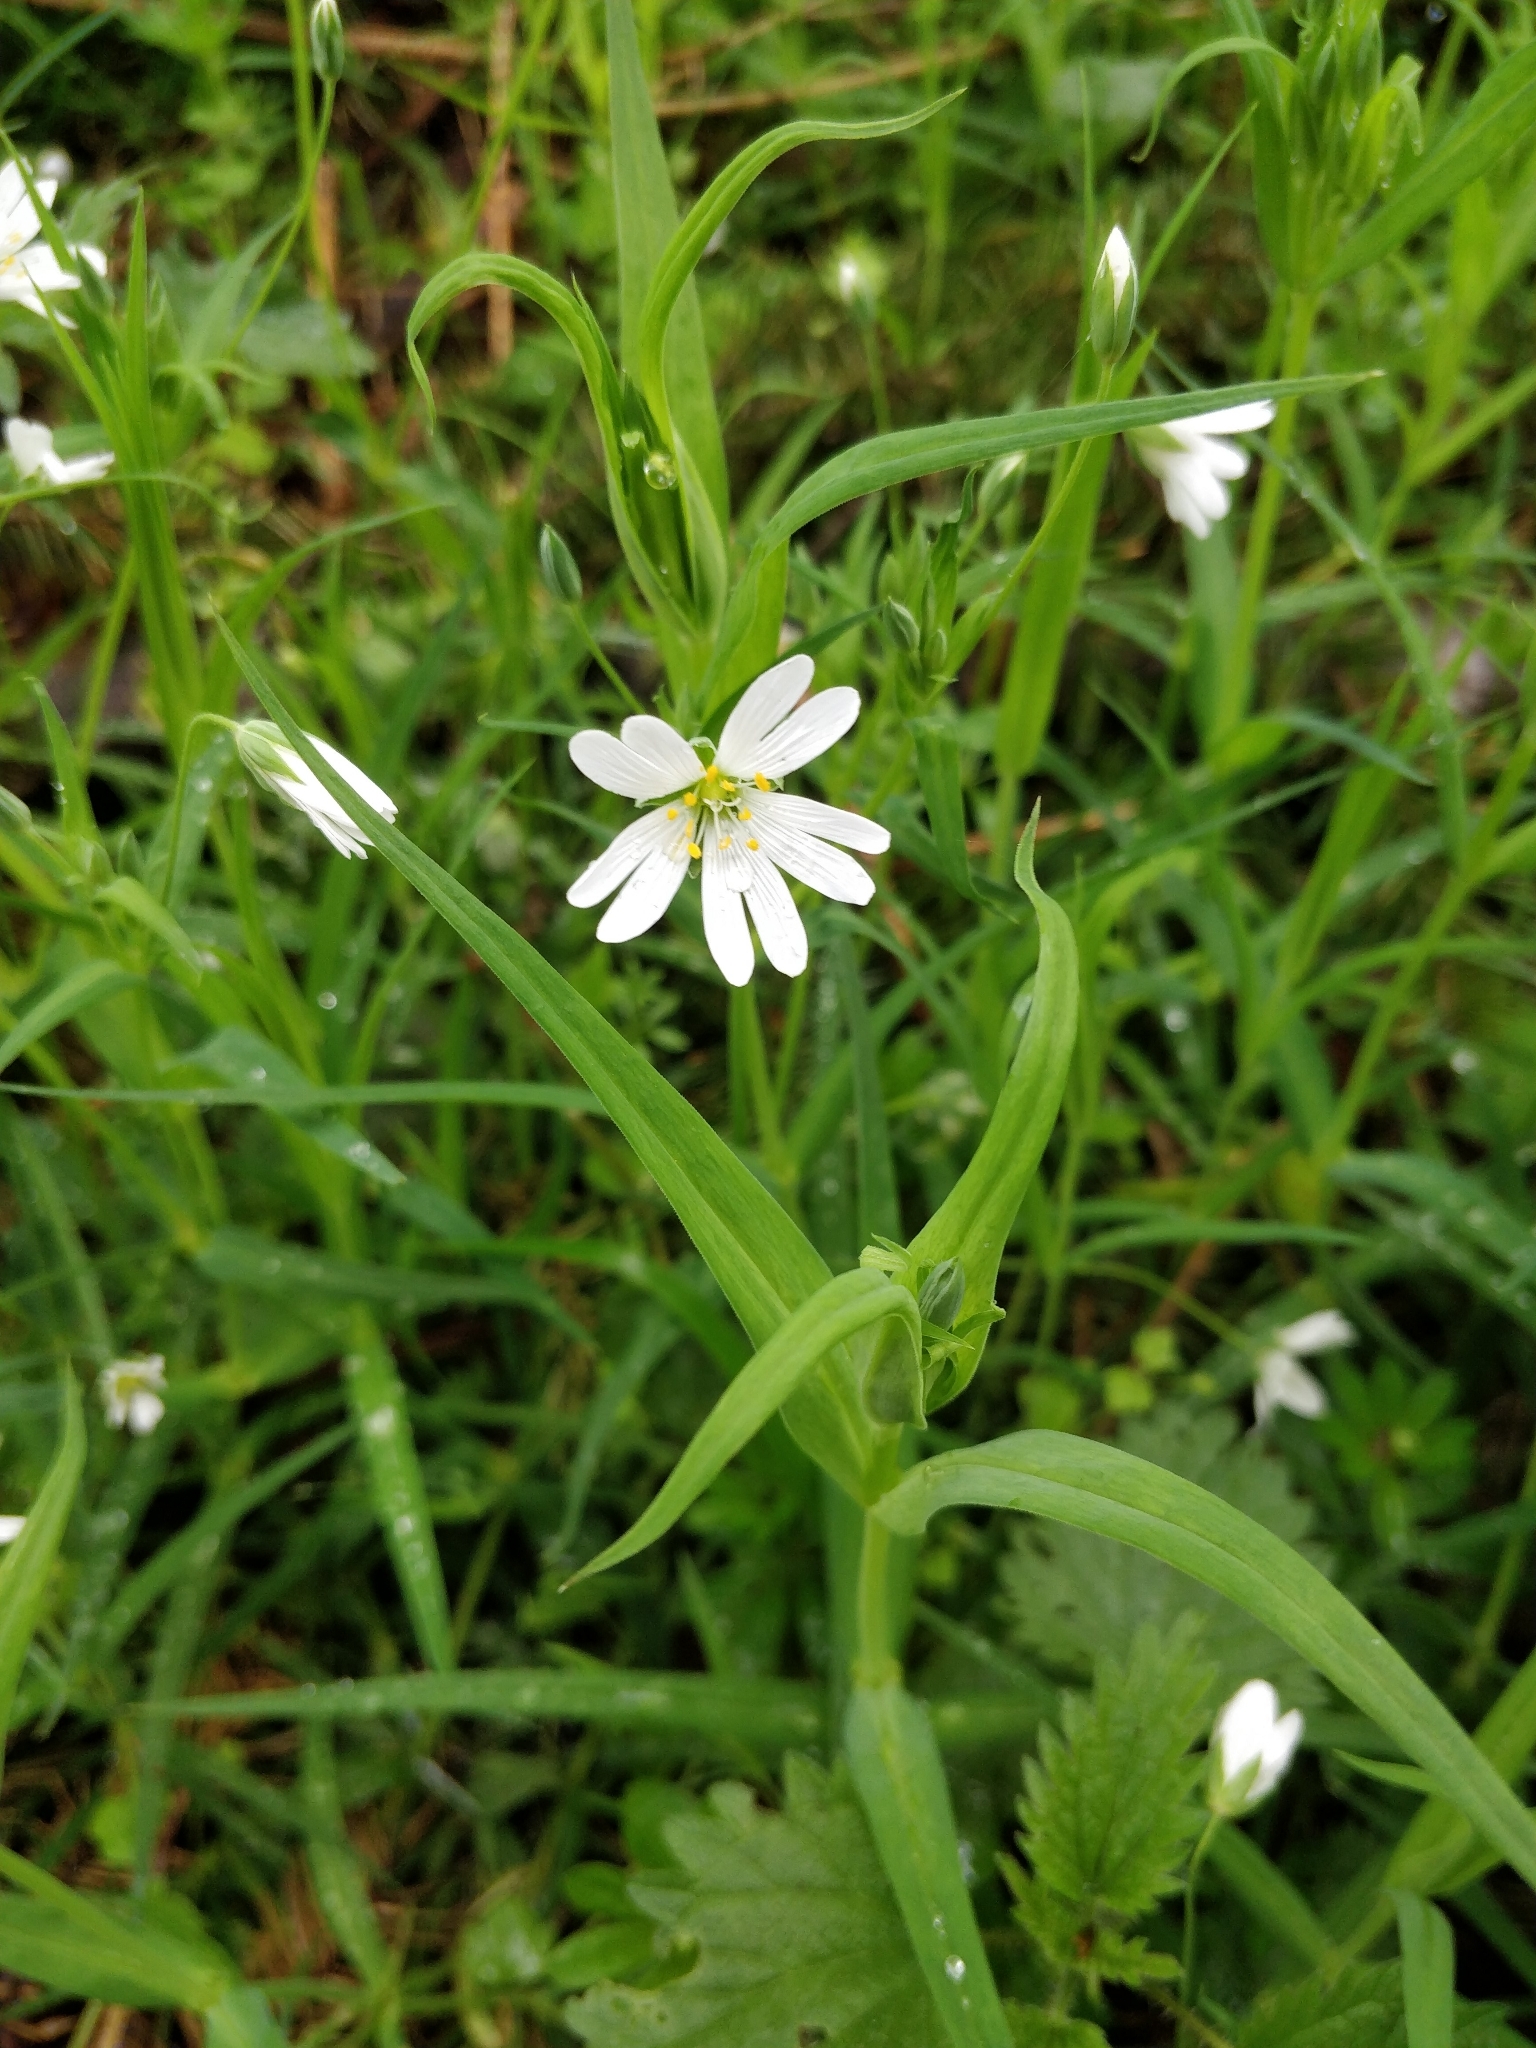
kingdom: Plantae
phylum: Tracheophyta
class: Magnoliopsida
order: Caryophyllales
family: Caryophyllaceae
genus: Rabelera
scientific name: Rabelera holostea
